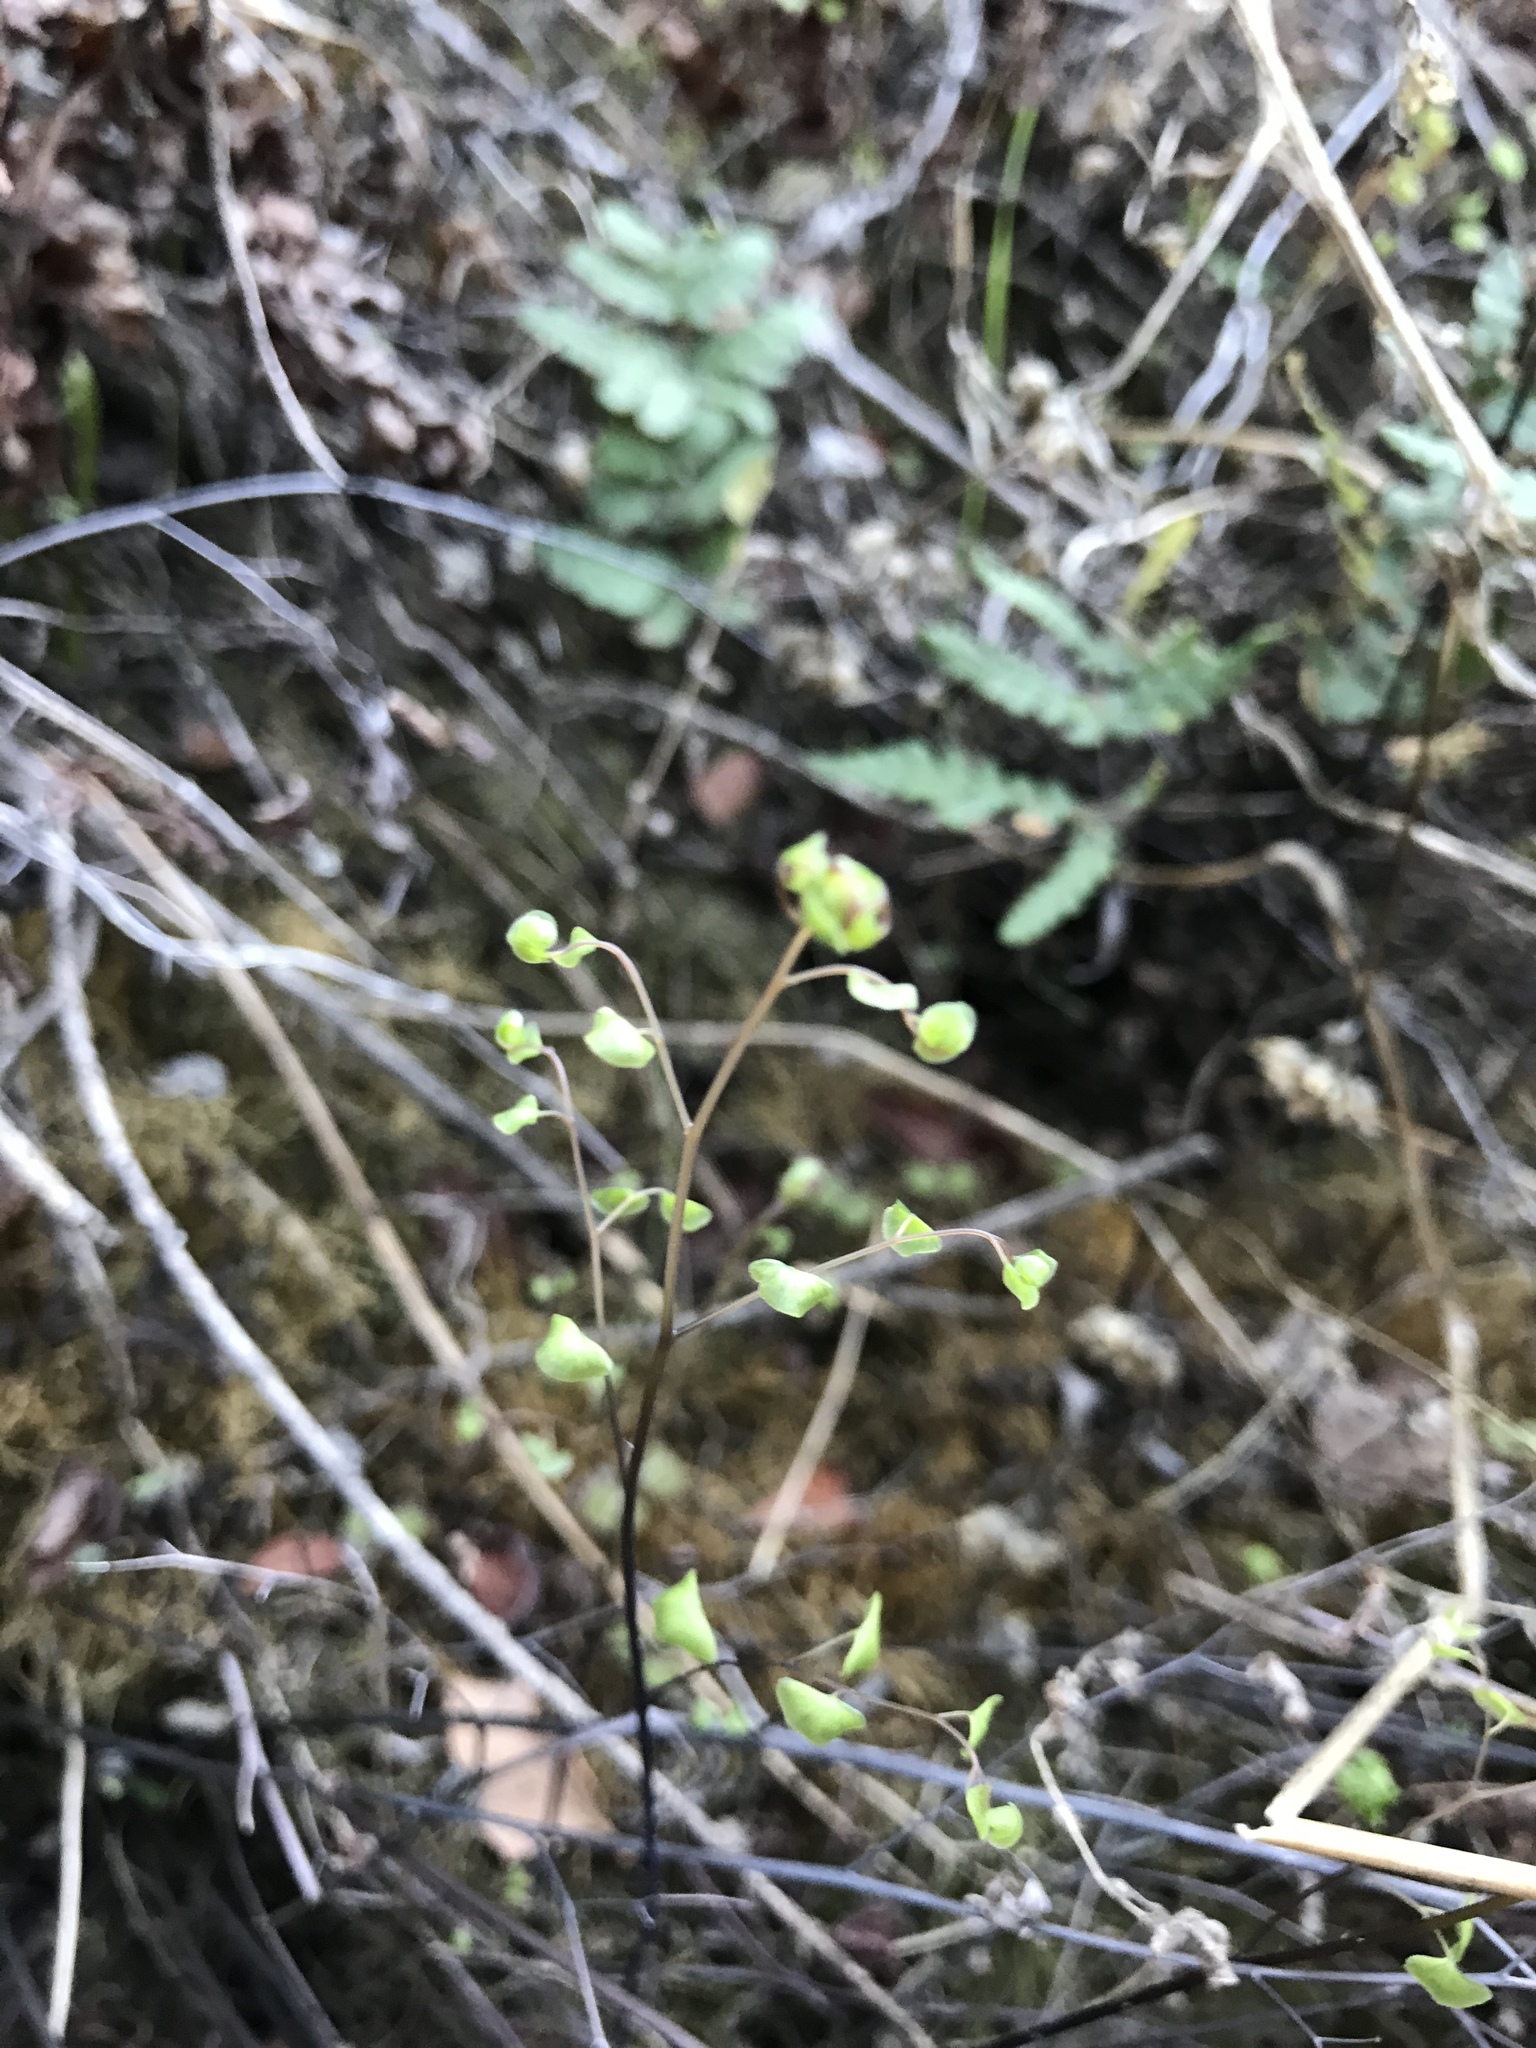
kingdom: Plantae
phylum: Tracheophyta
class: Polypodiopsida
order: Polypodiales
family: Pteridaceae
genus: Adiantum
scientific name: Adiantum jordanii
